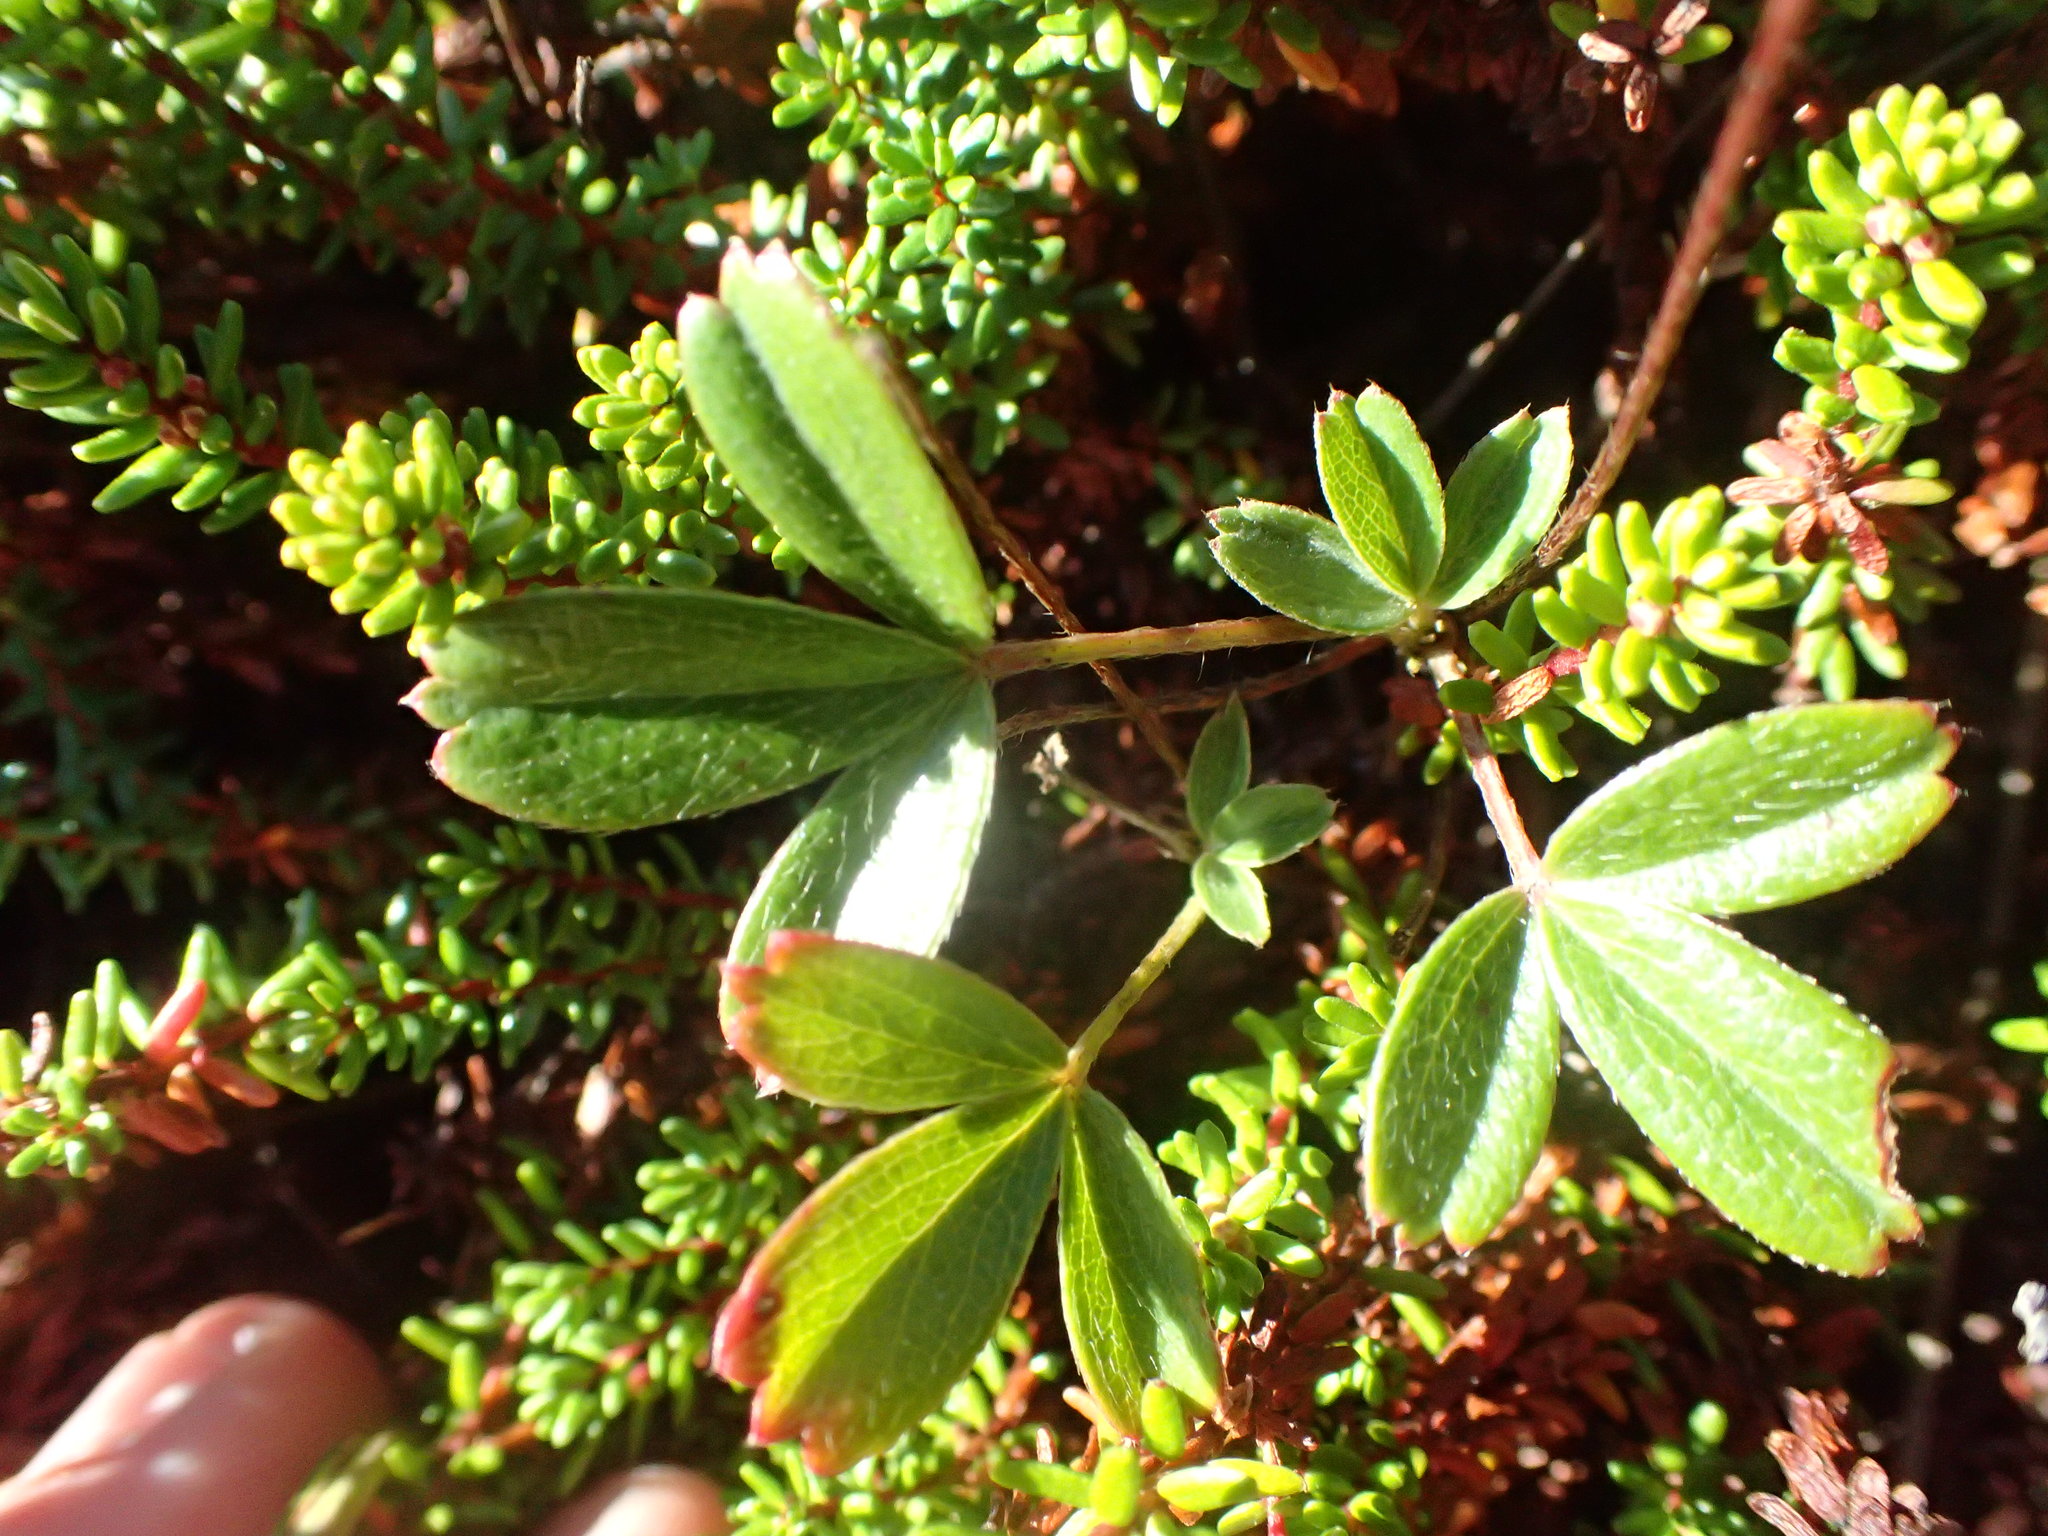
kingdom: Plantae
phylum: Tracheophyta
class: Magnoliopsida
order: Rosales
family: Rosaceae
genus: Sibbaldia
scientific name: Sibbaldia tridentata
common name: Three-toothed cinquefoil
